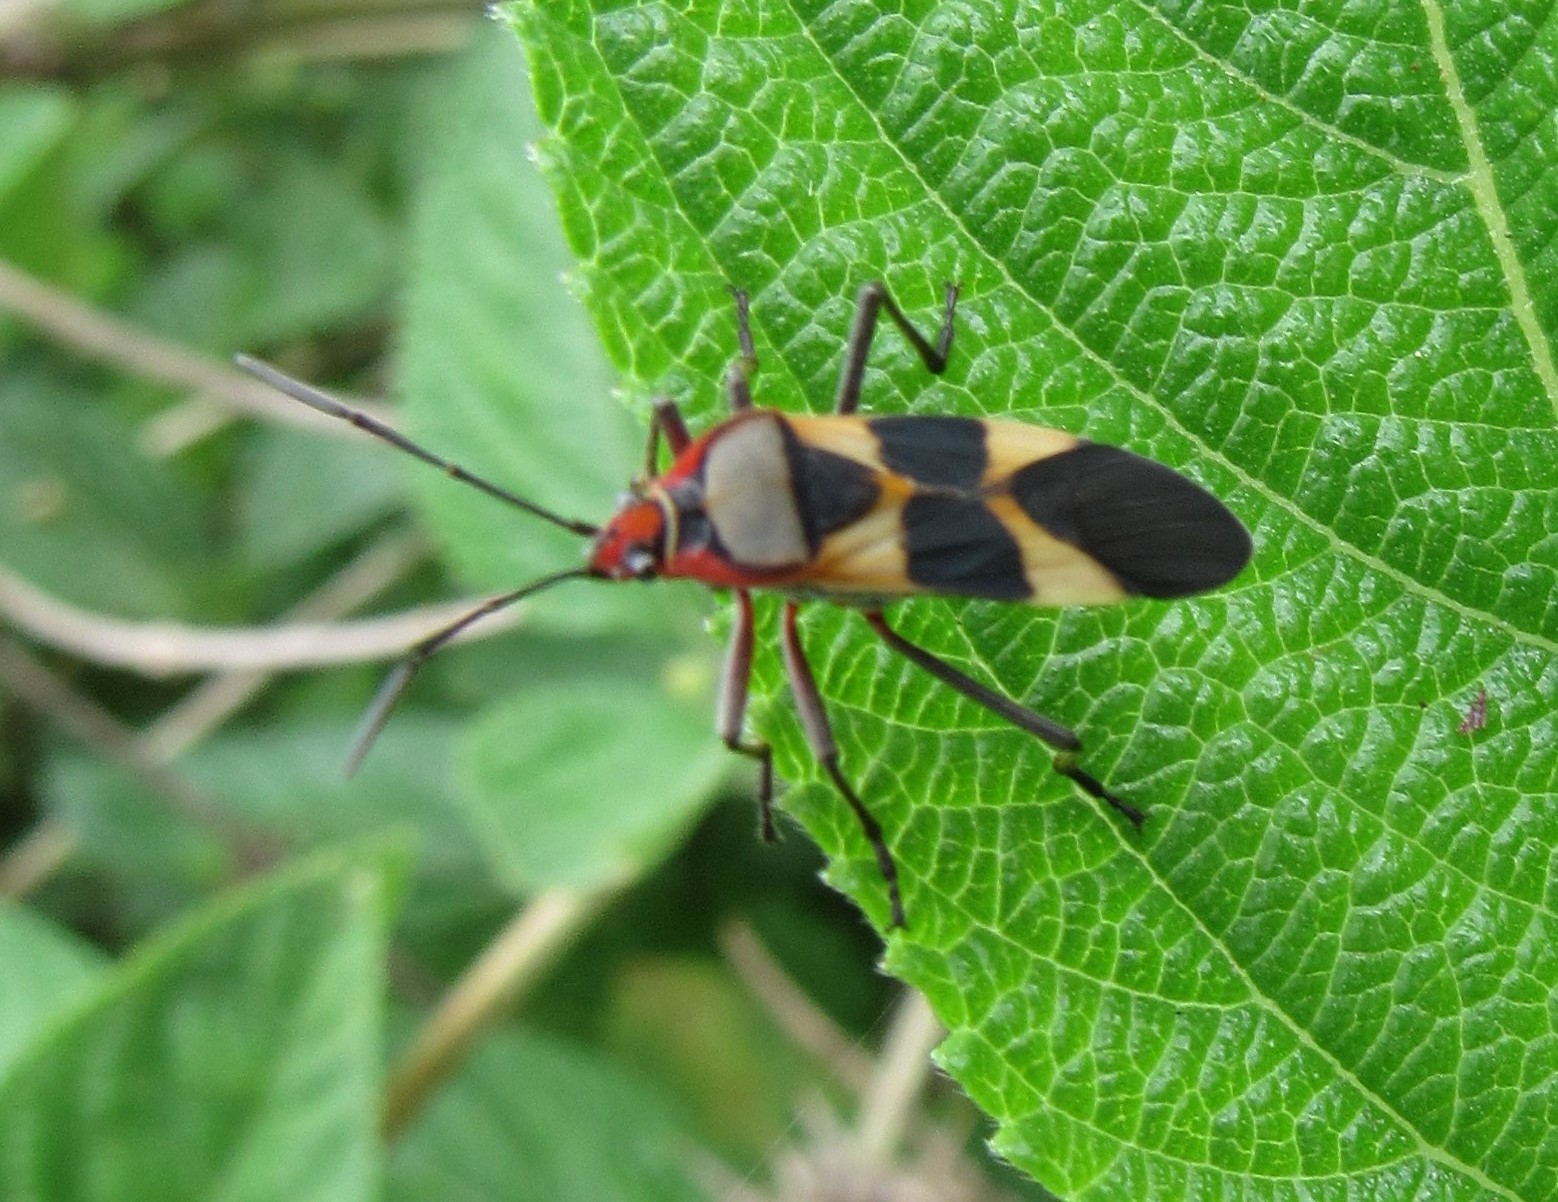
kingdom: Animalia
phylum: Arthropoda
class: Insecta
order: Hemiptera
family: Lygaeidae
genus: Oncopeltus
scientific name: Oncopeltus unifasciatellus
